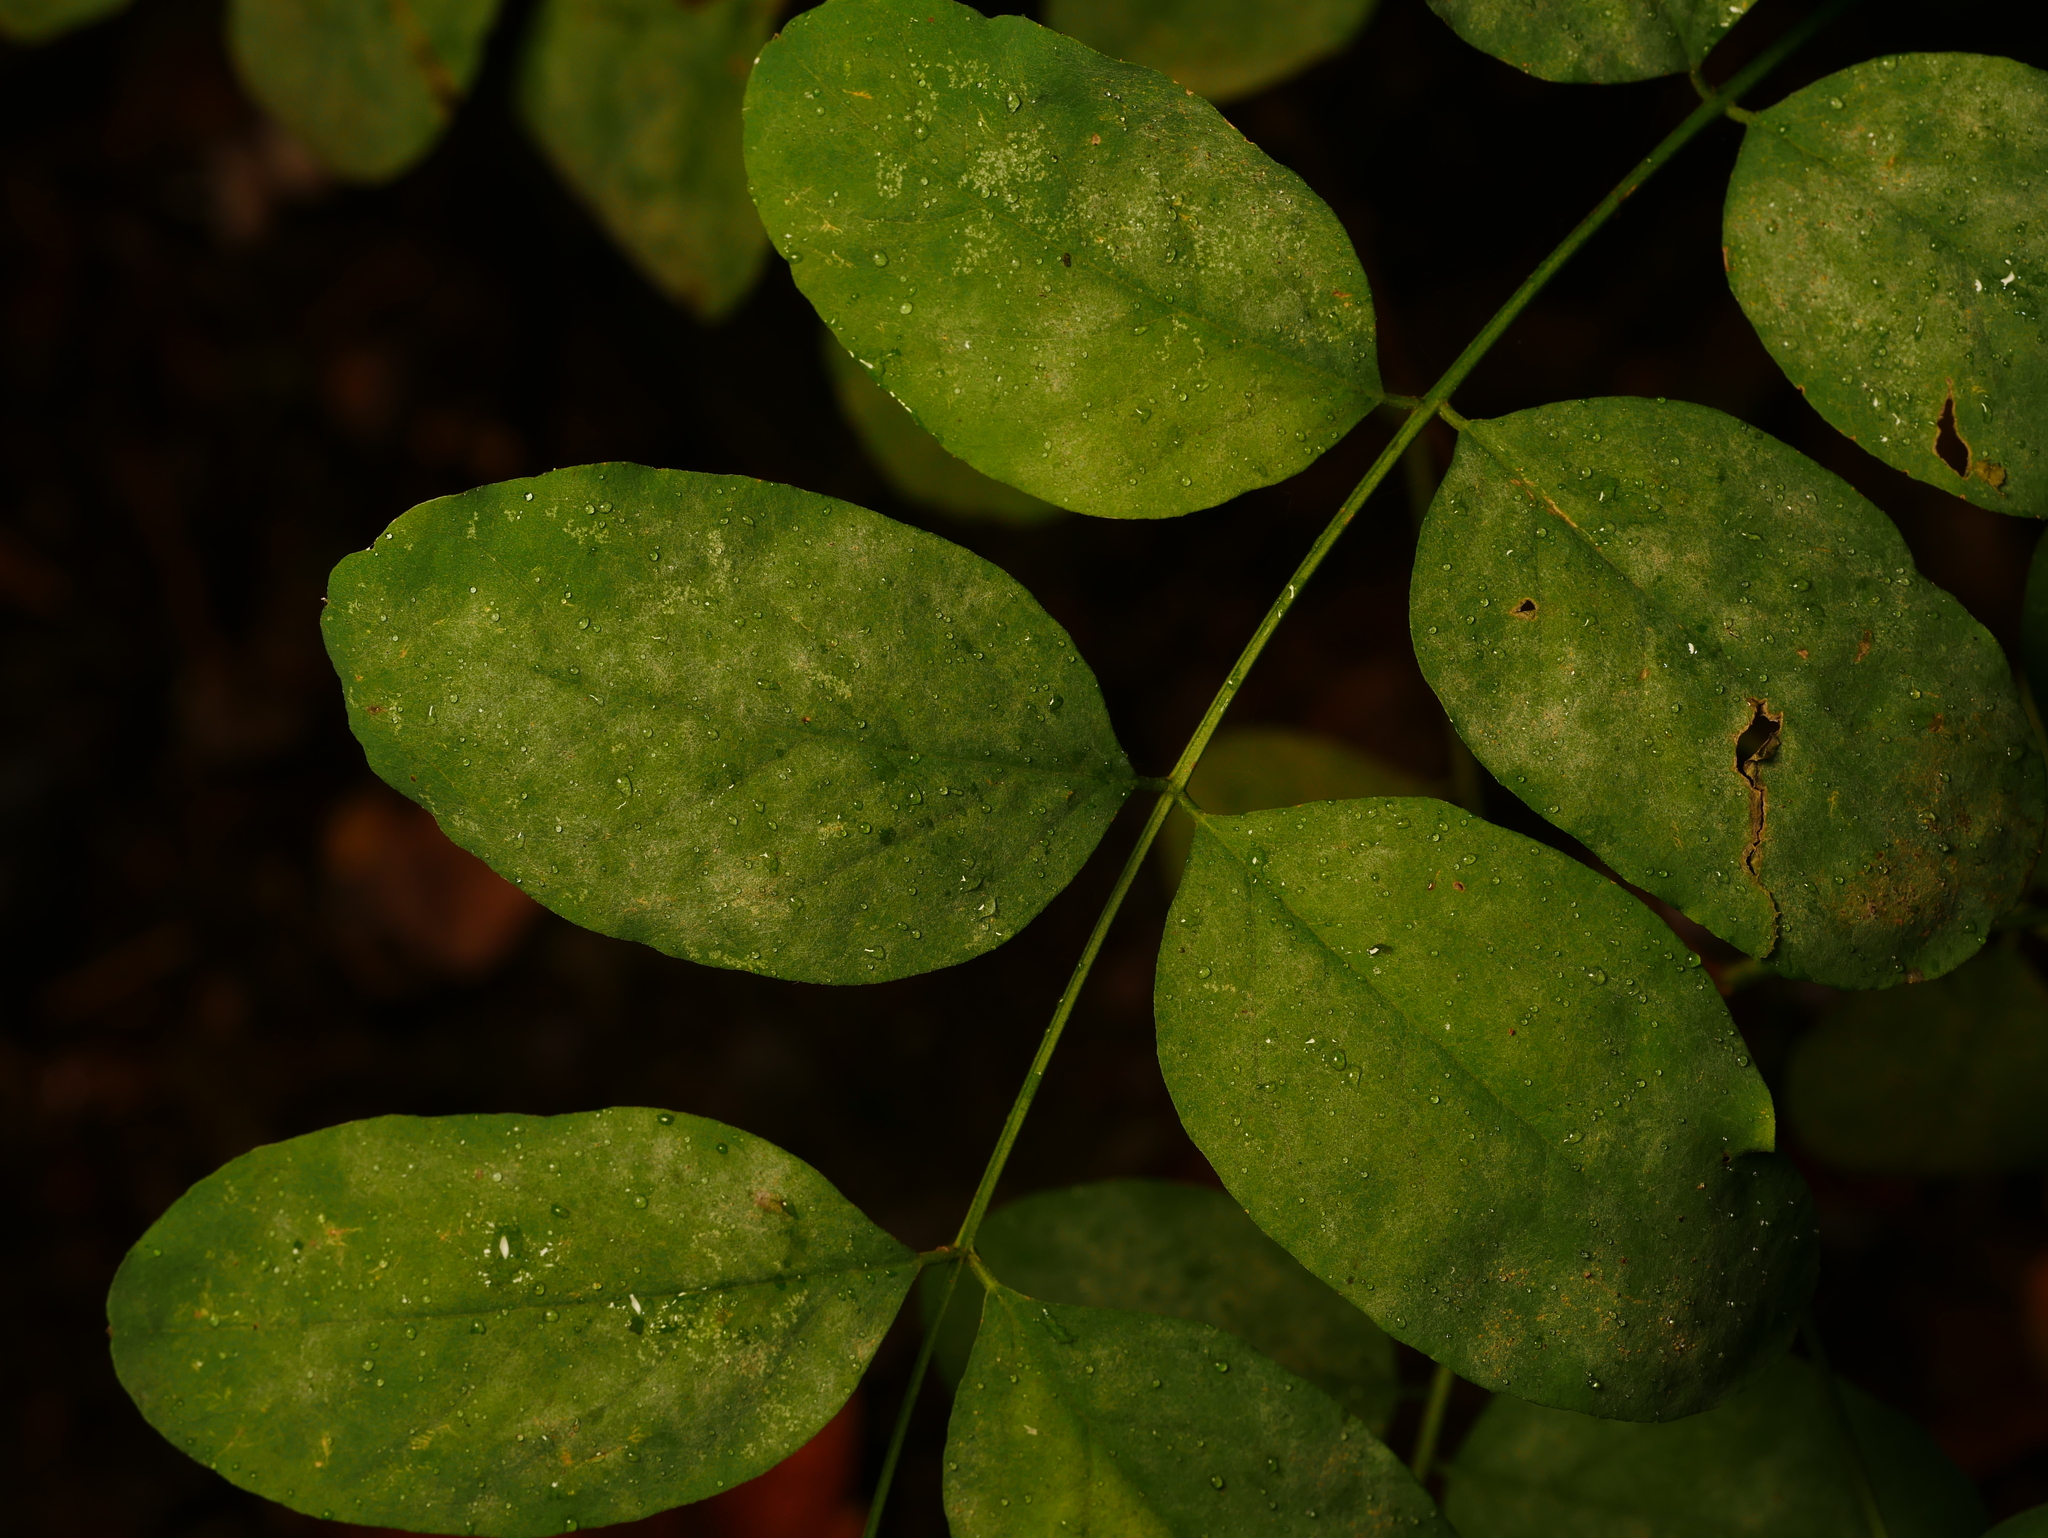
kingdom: Plantae
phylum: Tracheophyta
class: Magnoliopsida
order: Fabales
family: Fabaceae
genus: Robinia
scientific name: Robinia pseudoacacia
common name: Black locust
